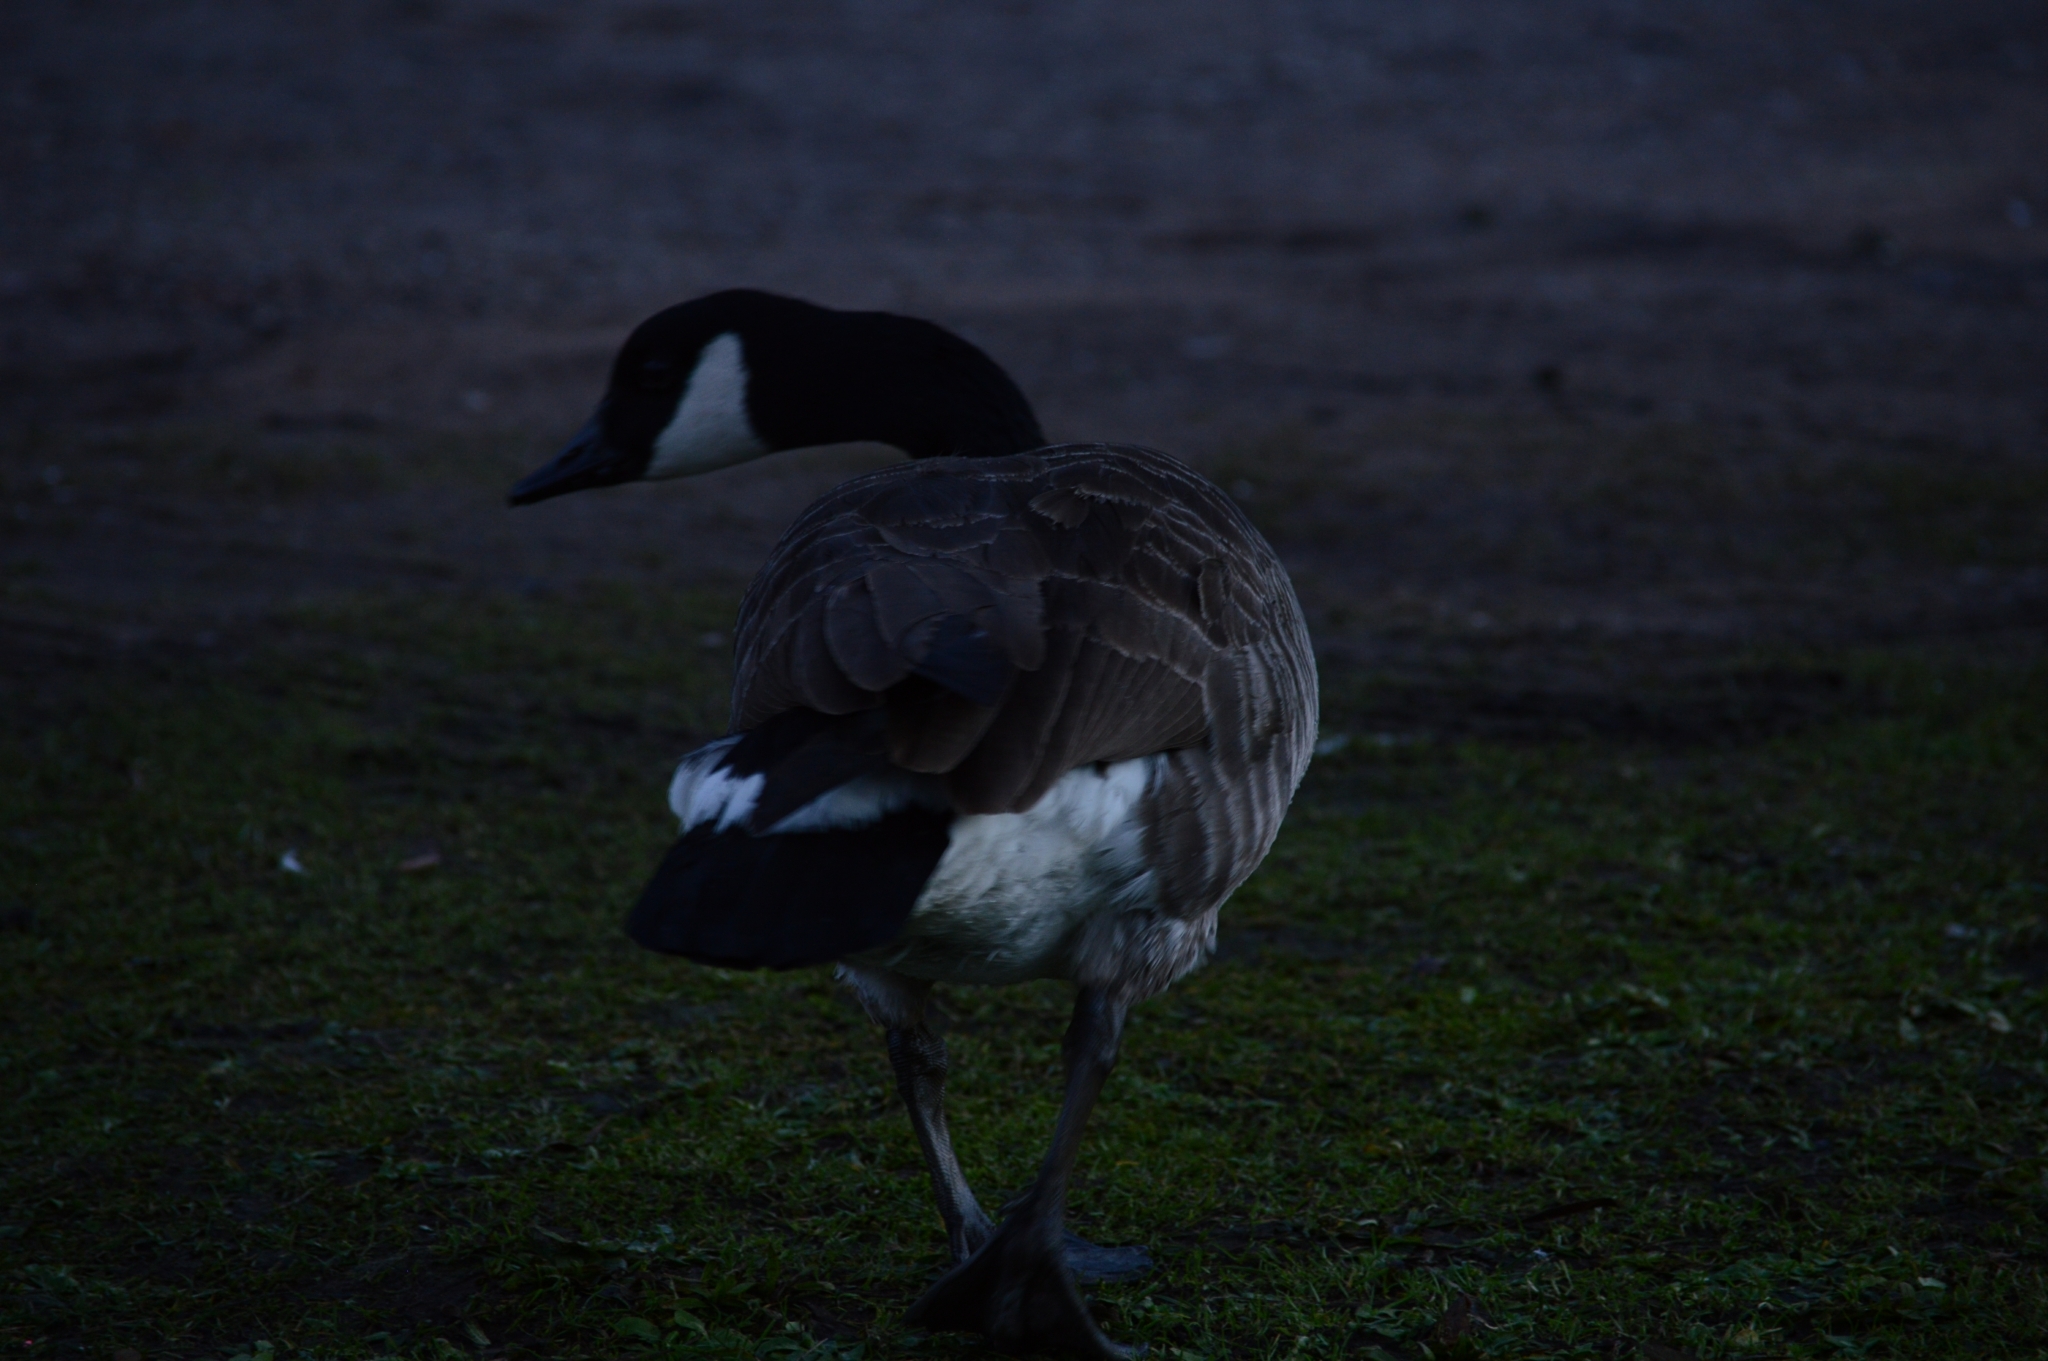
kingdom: Animalia
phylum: Chordata
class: Aves
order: Anseriformes
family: Anatidae
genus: Branta
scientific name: Branta canadensis
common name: Canada goose
